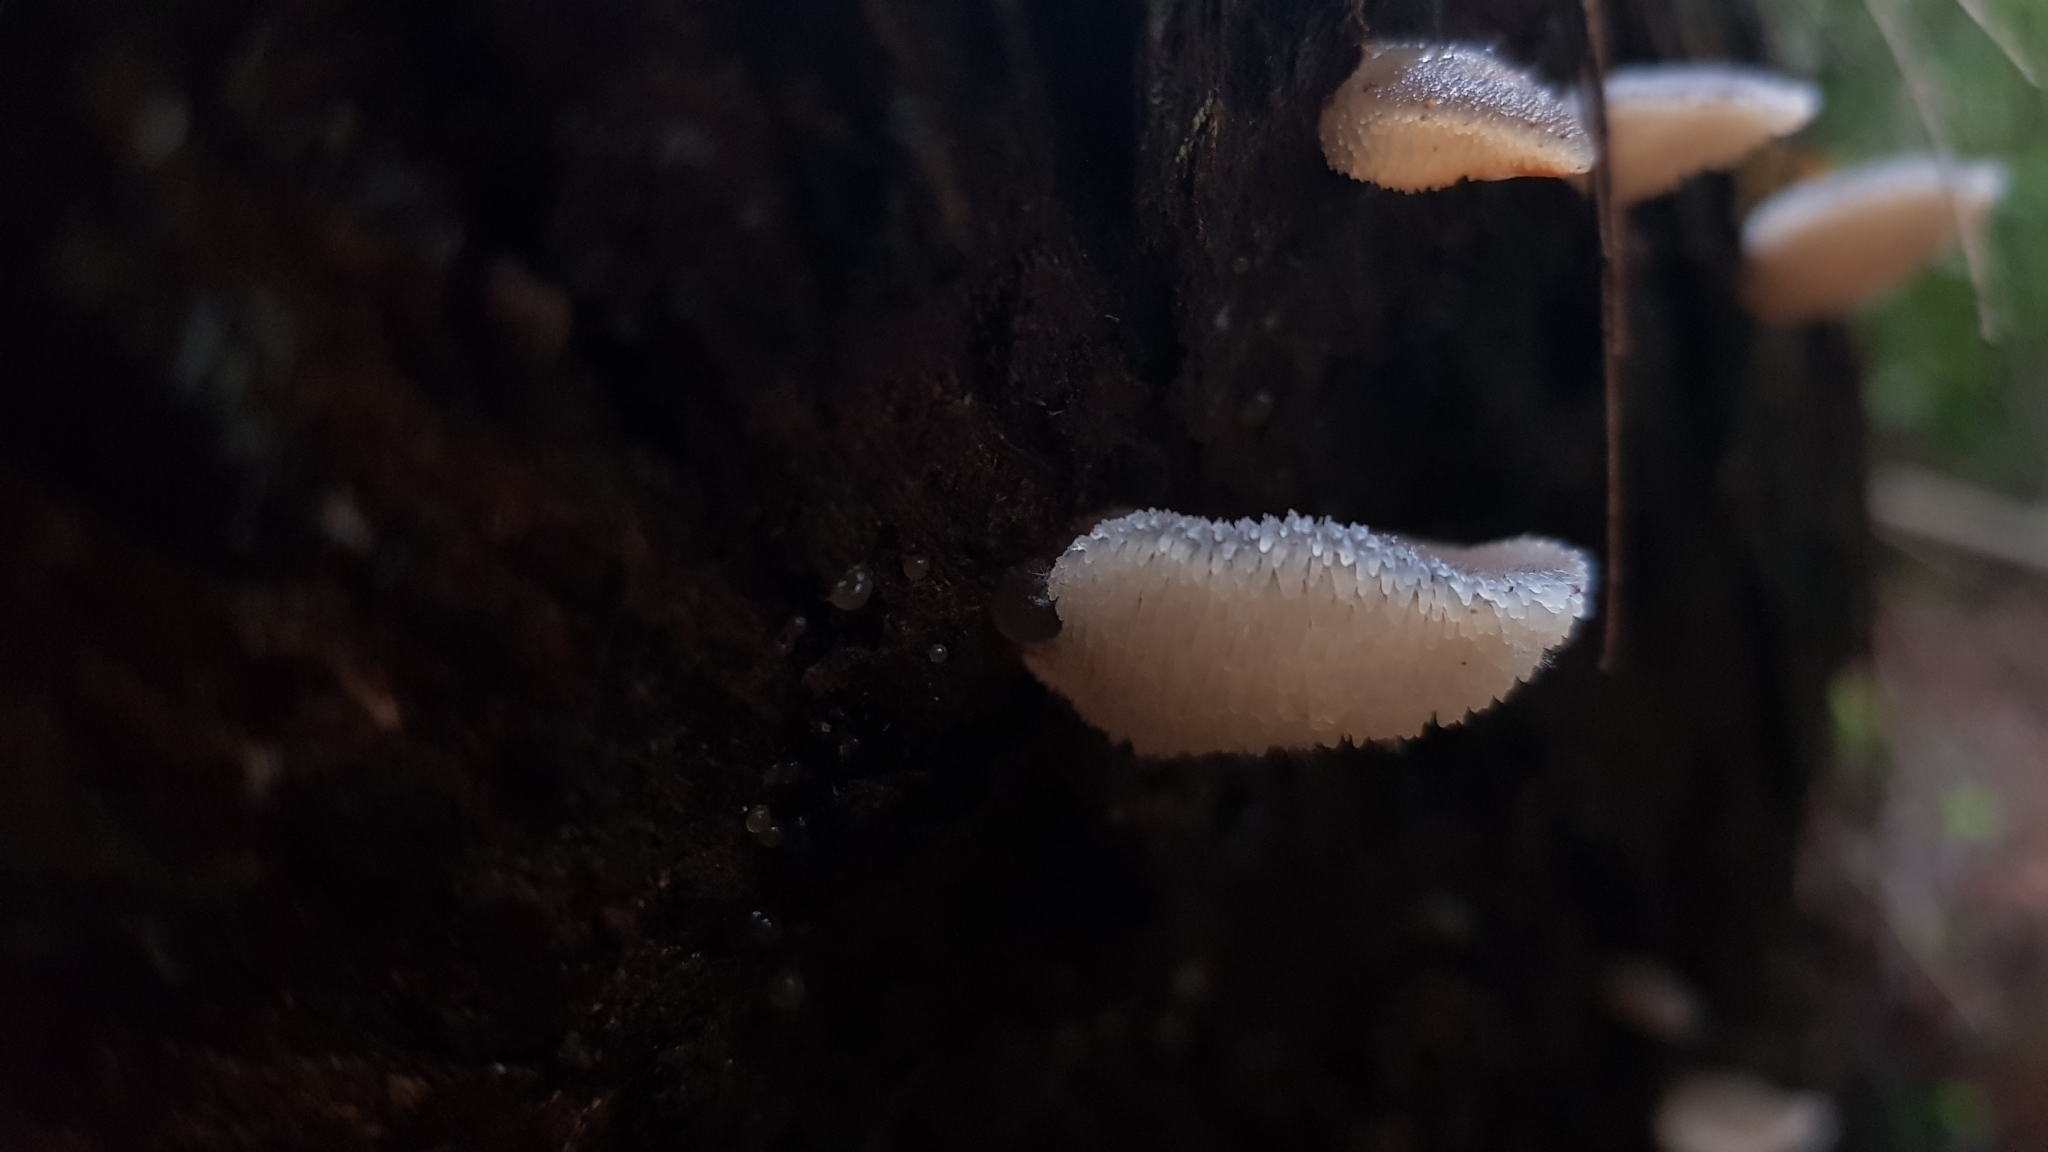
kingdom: Fungi
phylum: Basidiomycota
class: Agaricomycetes
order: Auriculariales
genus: Pseudohydnum
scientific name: Pseudohydnum gelatinosum
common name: Jelly tongue
